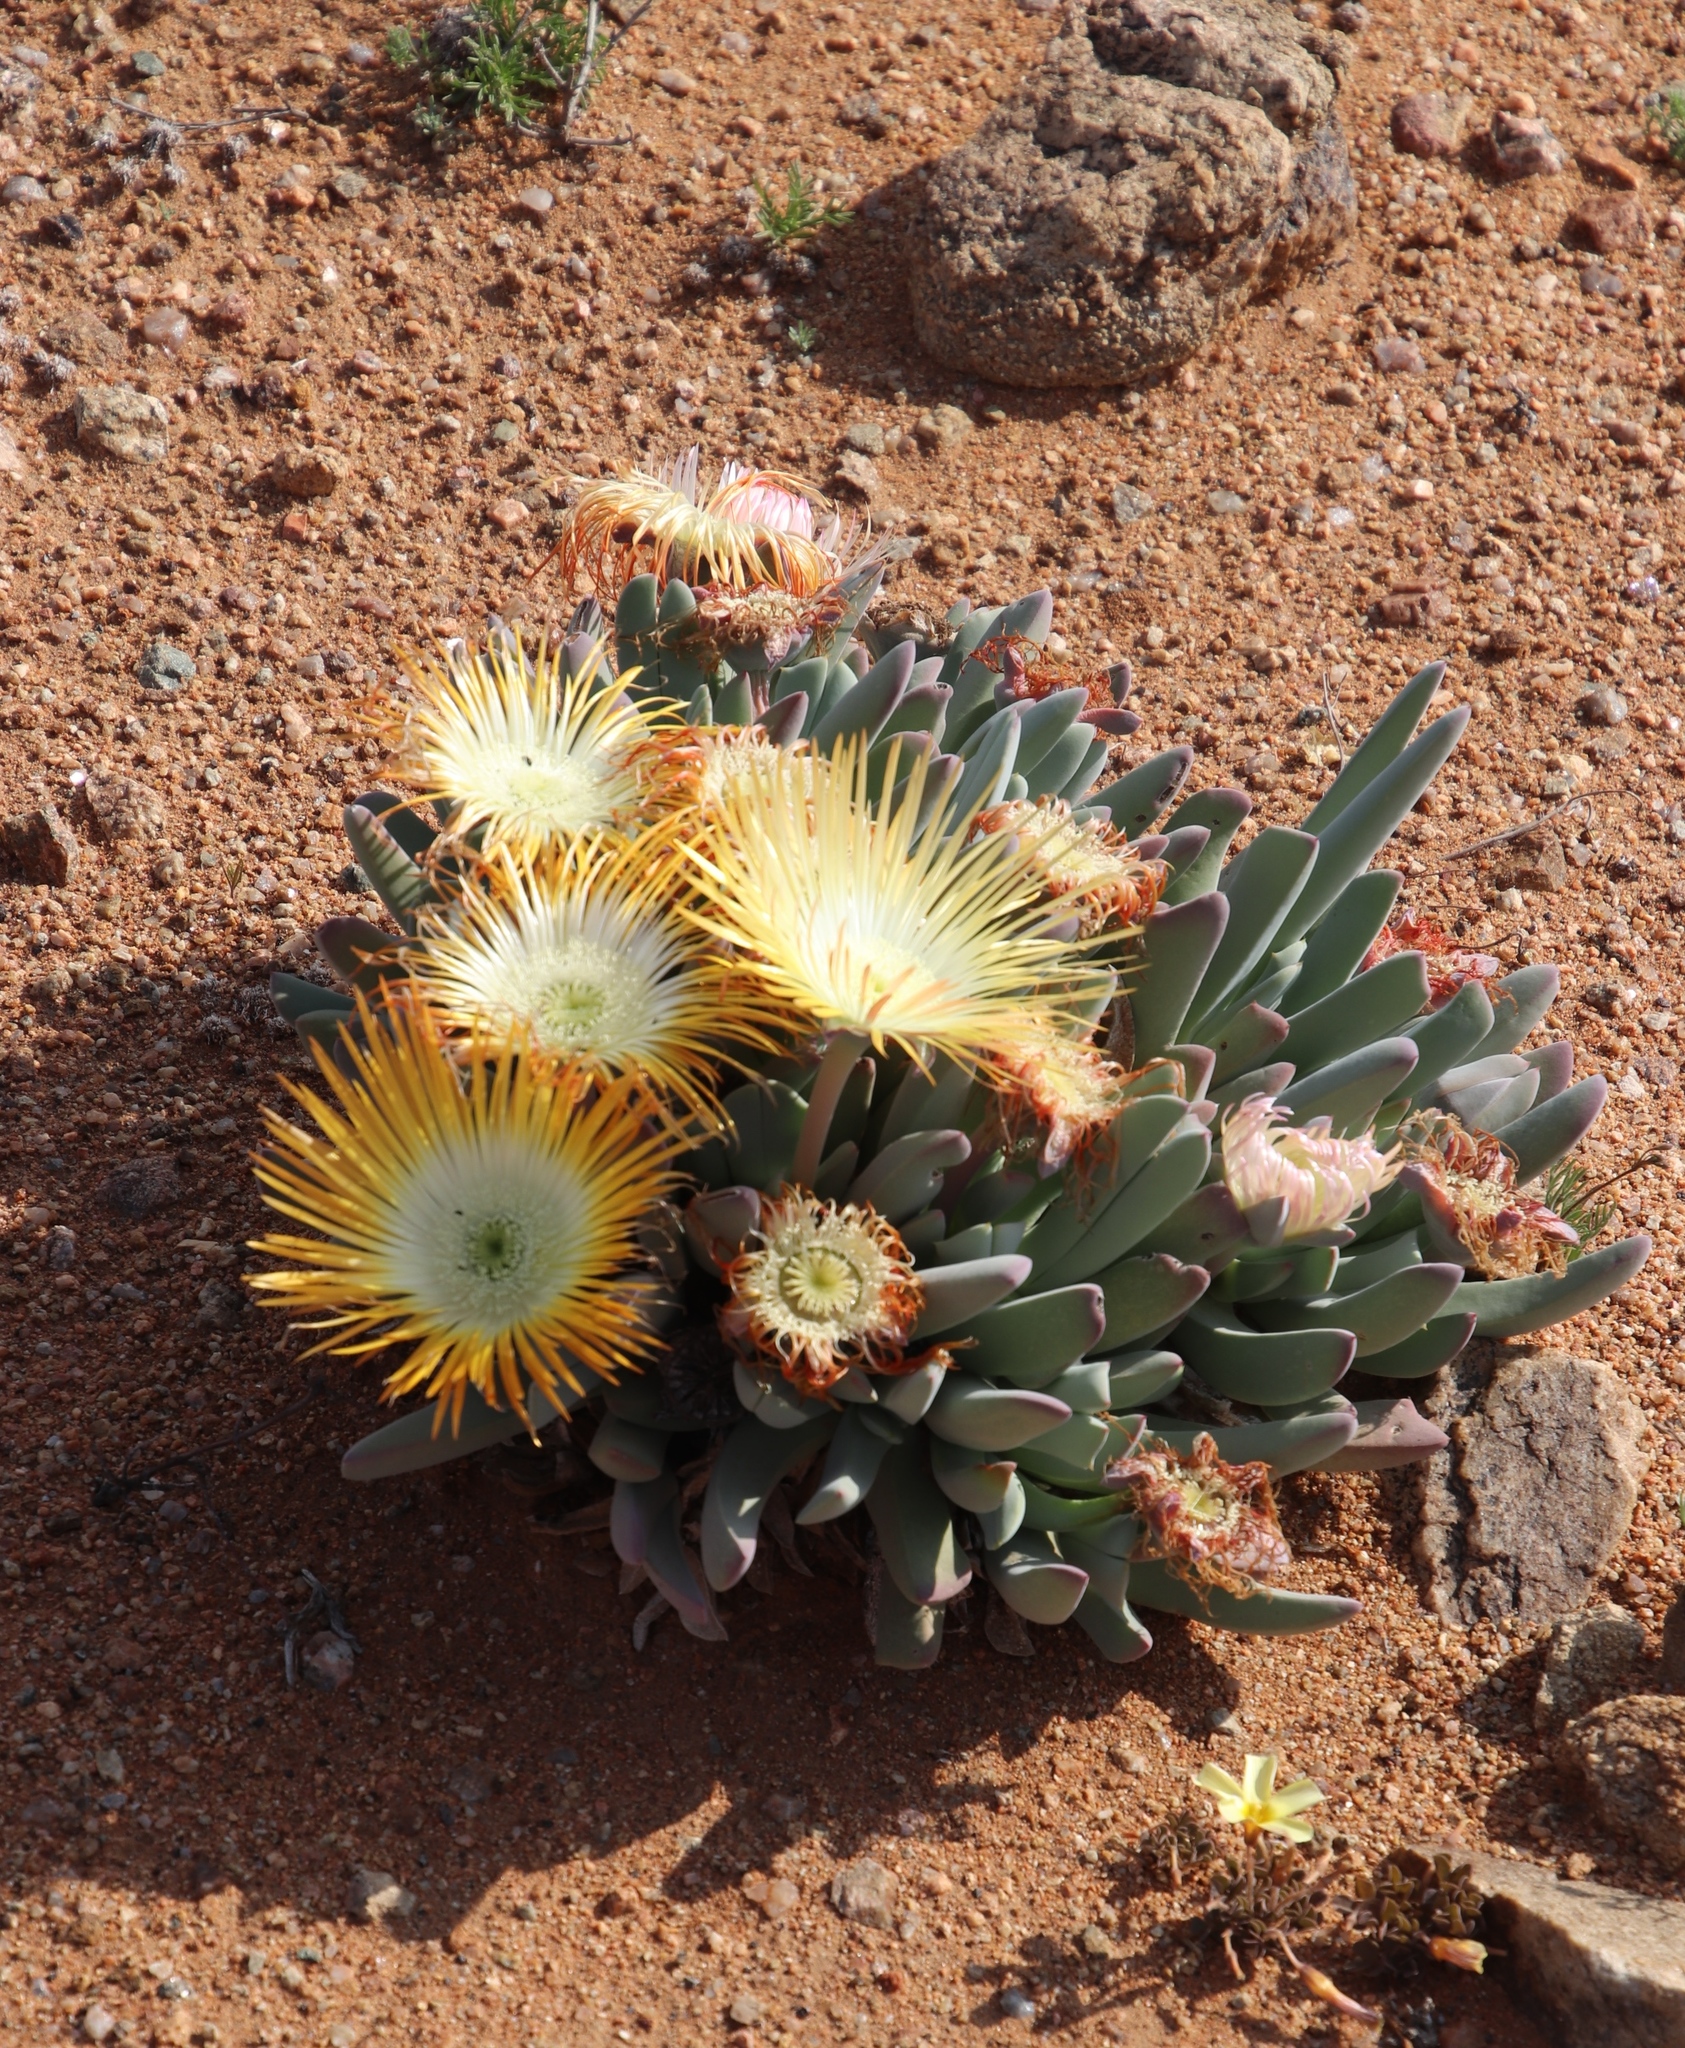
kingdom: Plantae
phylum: Tracheophyta
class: Magnoliopsida
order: Caryophyllales
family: Aizoaceae
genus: Cheiridopsis
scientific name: Cheiridopsis denticulata
